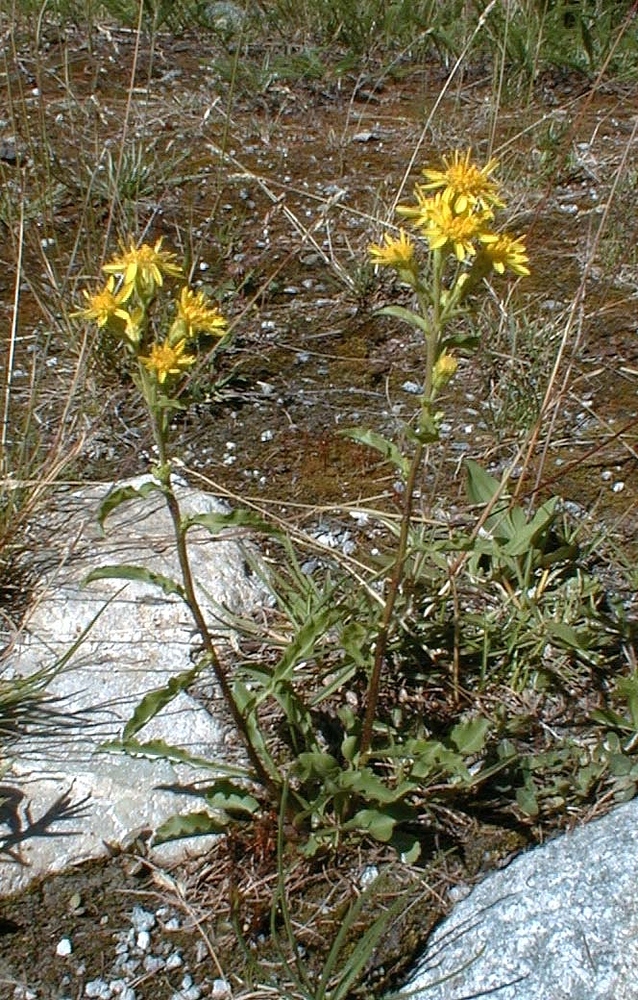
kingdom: Plantae
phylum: Tracheophyta
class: Magnoliopsida
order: Asterales
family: Asteraceae
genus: Solidago
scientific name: Solidago virgaurea
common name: Goldenrod
